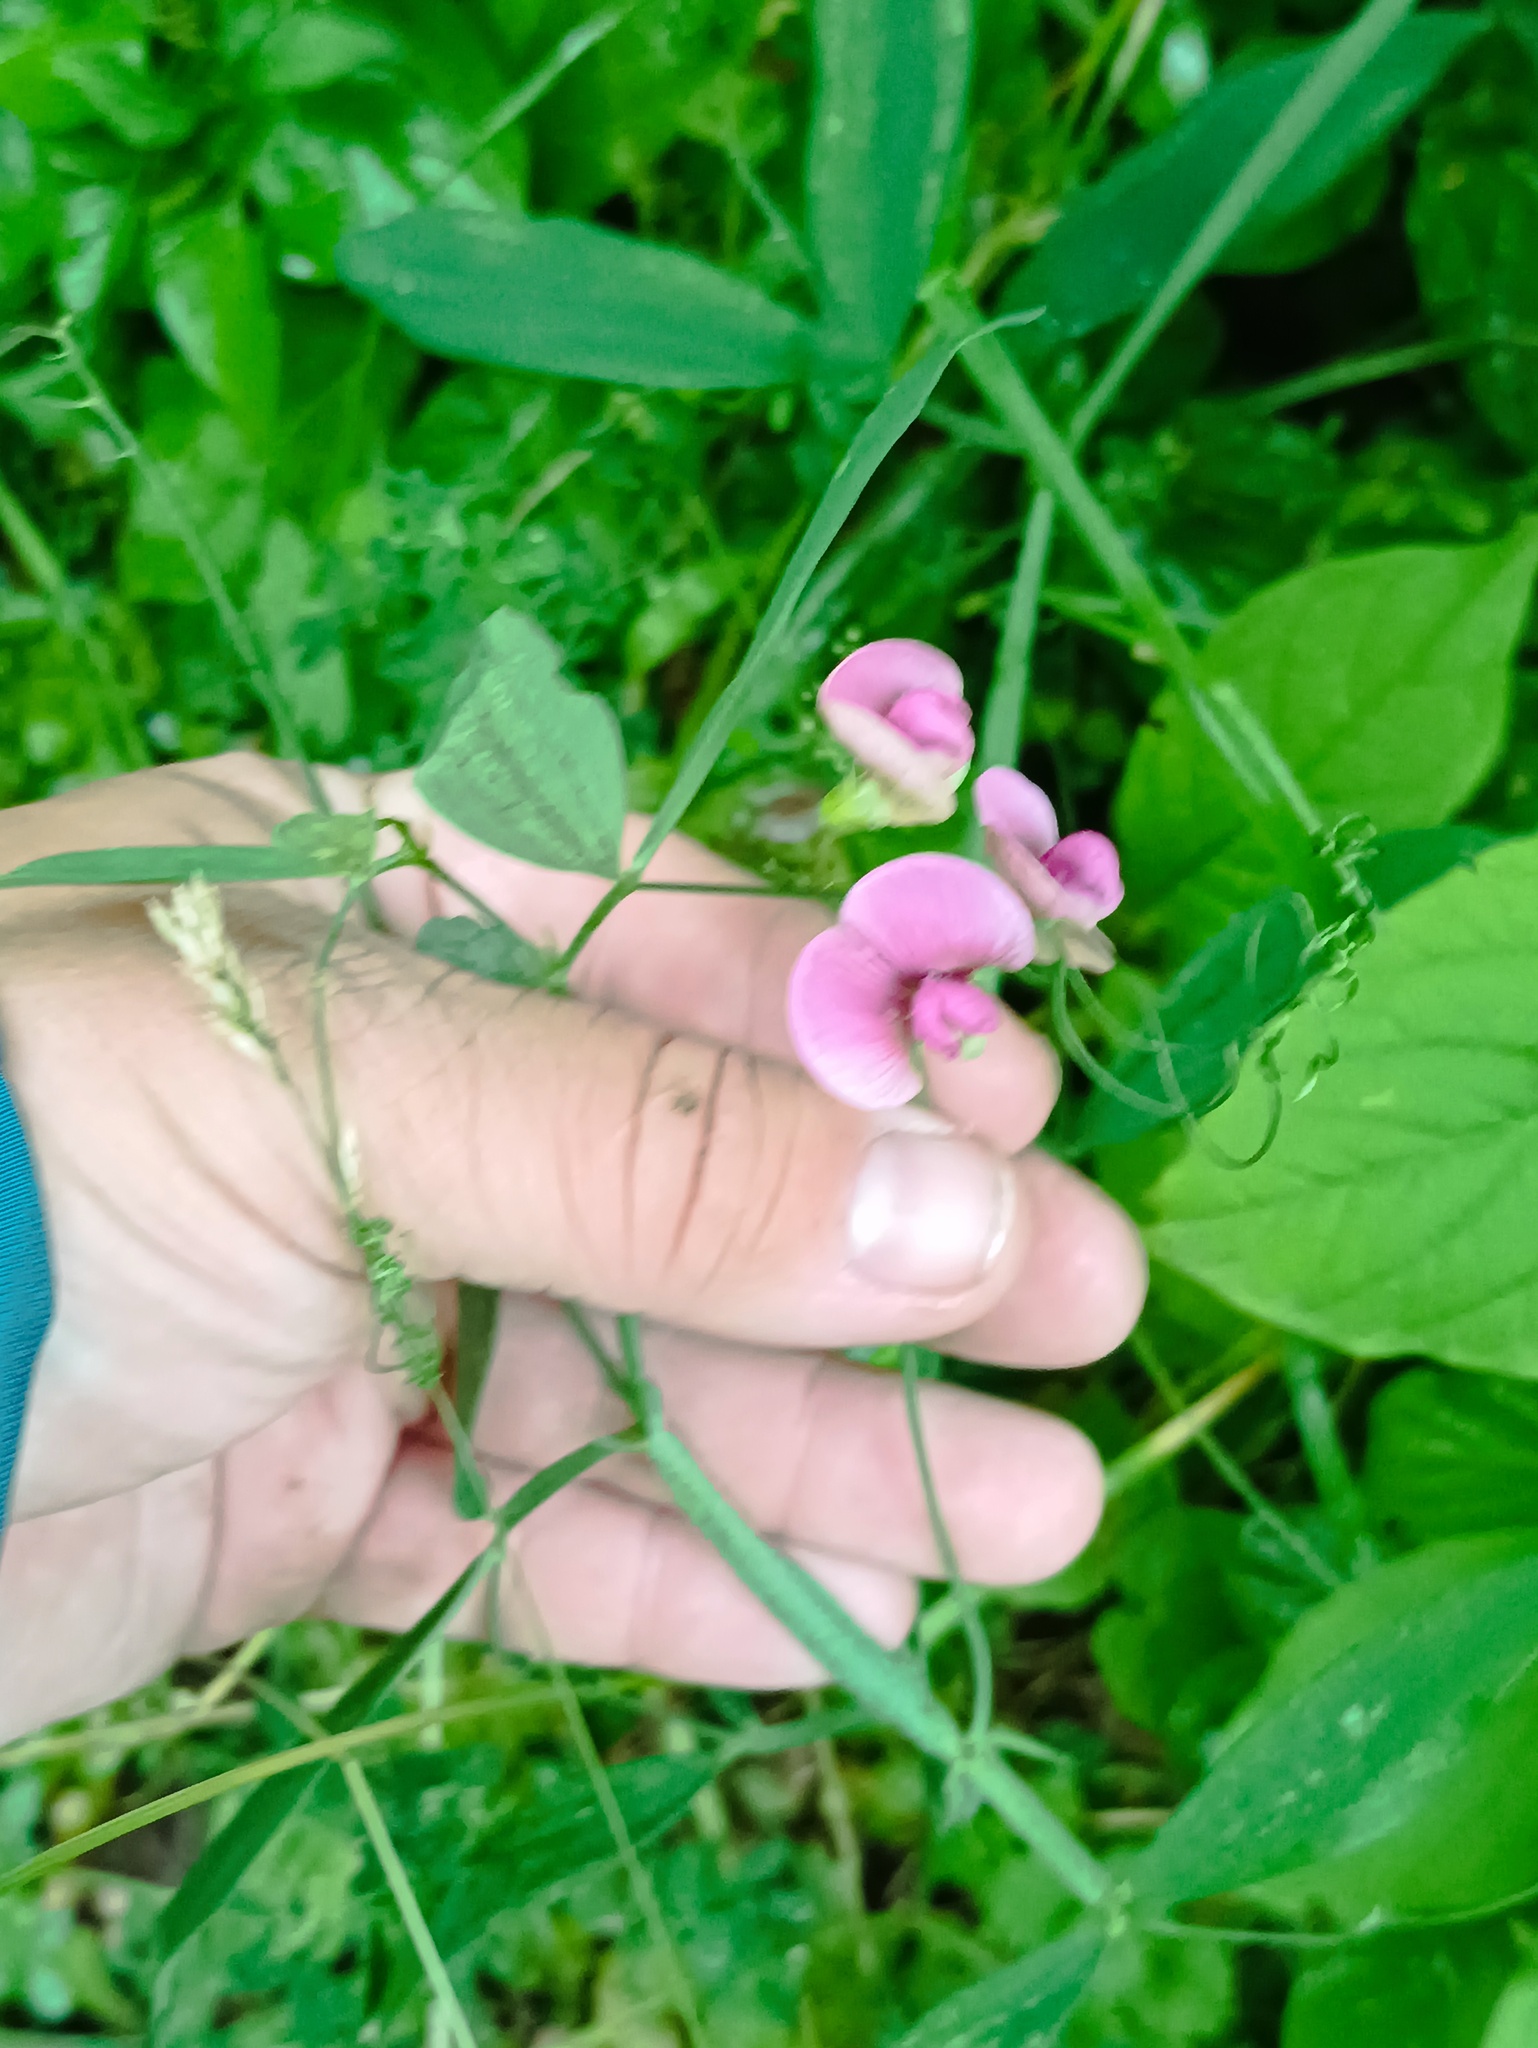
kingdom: Plantae
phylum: Tracheophyta
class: Magnoliopsida
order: Fabales
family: Fabaceae
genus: Lathyrus
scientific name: Lathyrus sylvestris
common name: Flat pea
